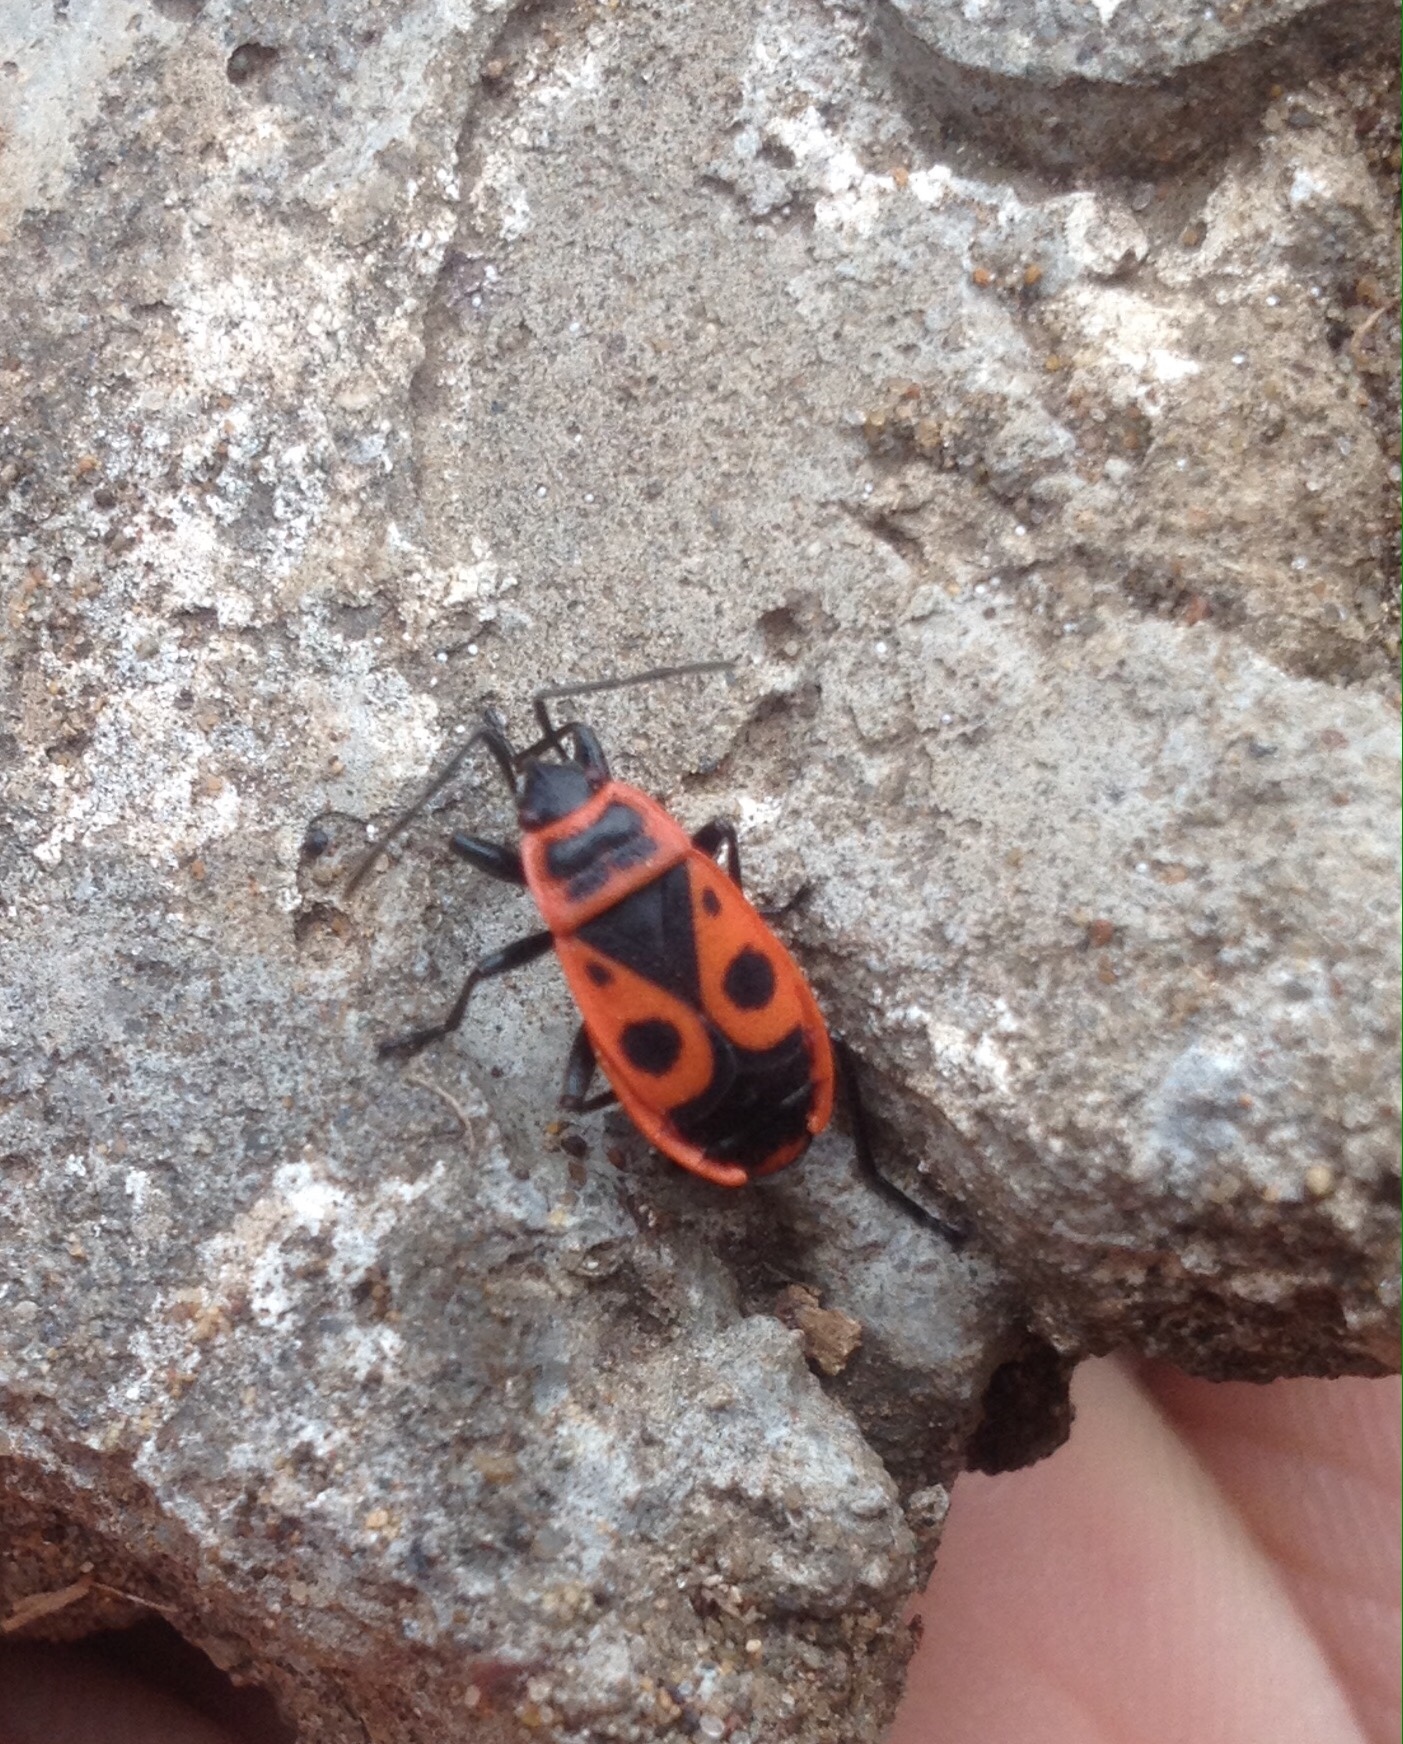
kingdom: Animalia
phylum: Arthropoda
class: Insecta
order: Hemiptera
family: Pyrrhocoridae
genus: Pyrrhocoris
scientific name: Pyrrhocoris apterus
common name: Firebug
